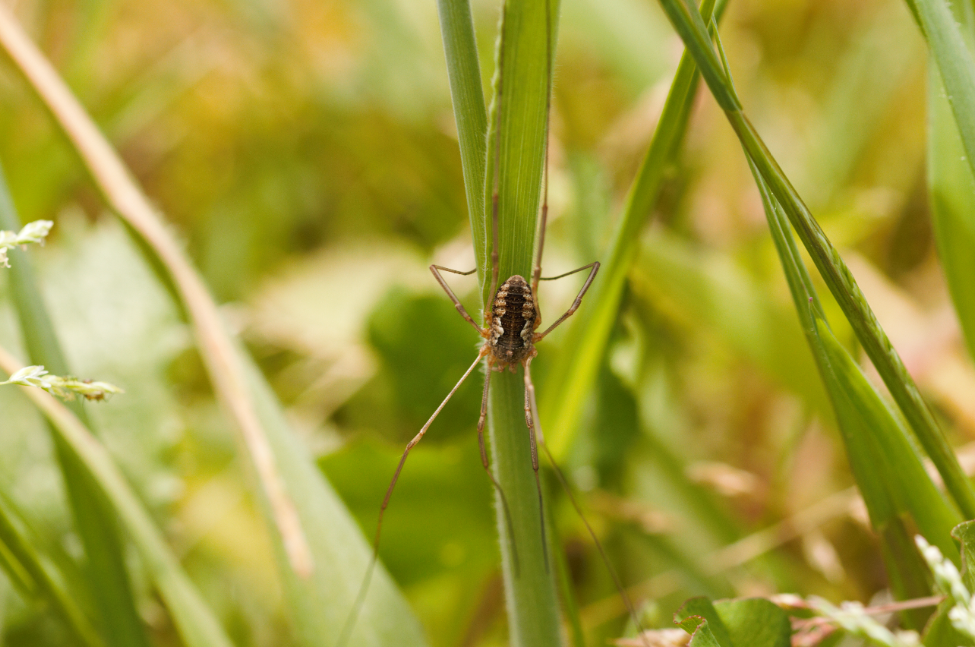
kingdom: Animalia
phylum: Arthropoda
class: Arachnida
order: Opiliones
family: Phalangiidae
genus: Phalangium
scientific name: Phalangium opilio
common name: Daddy longleg
